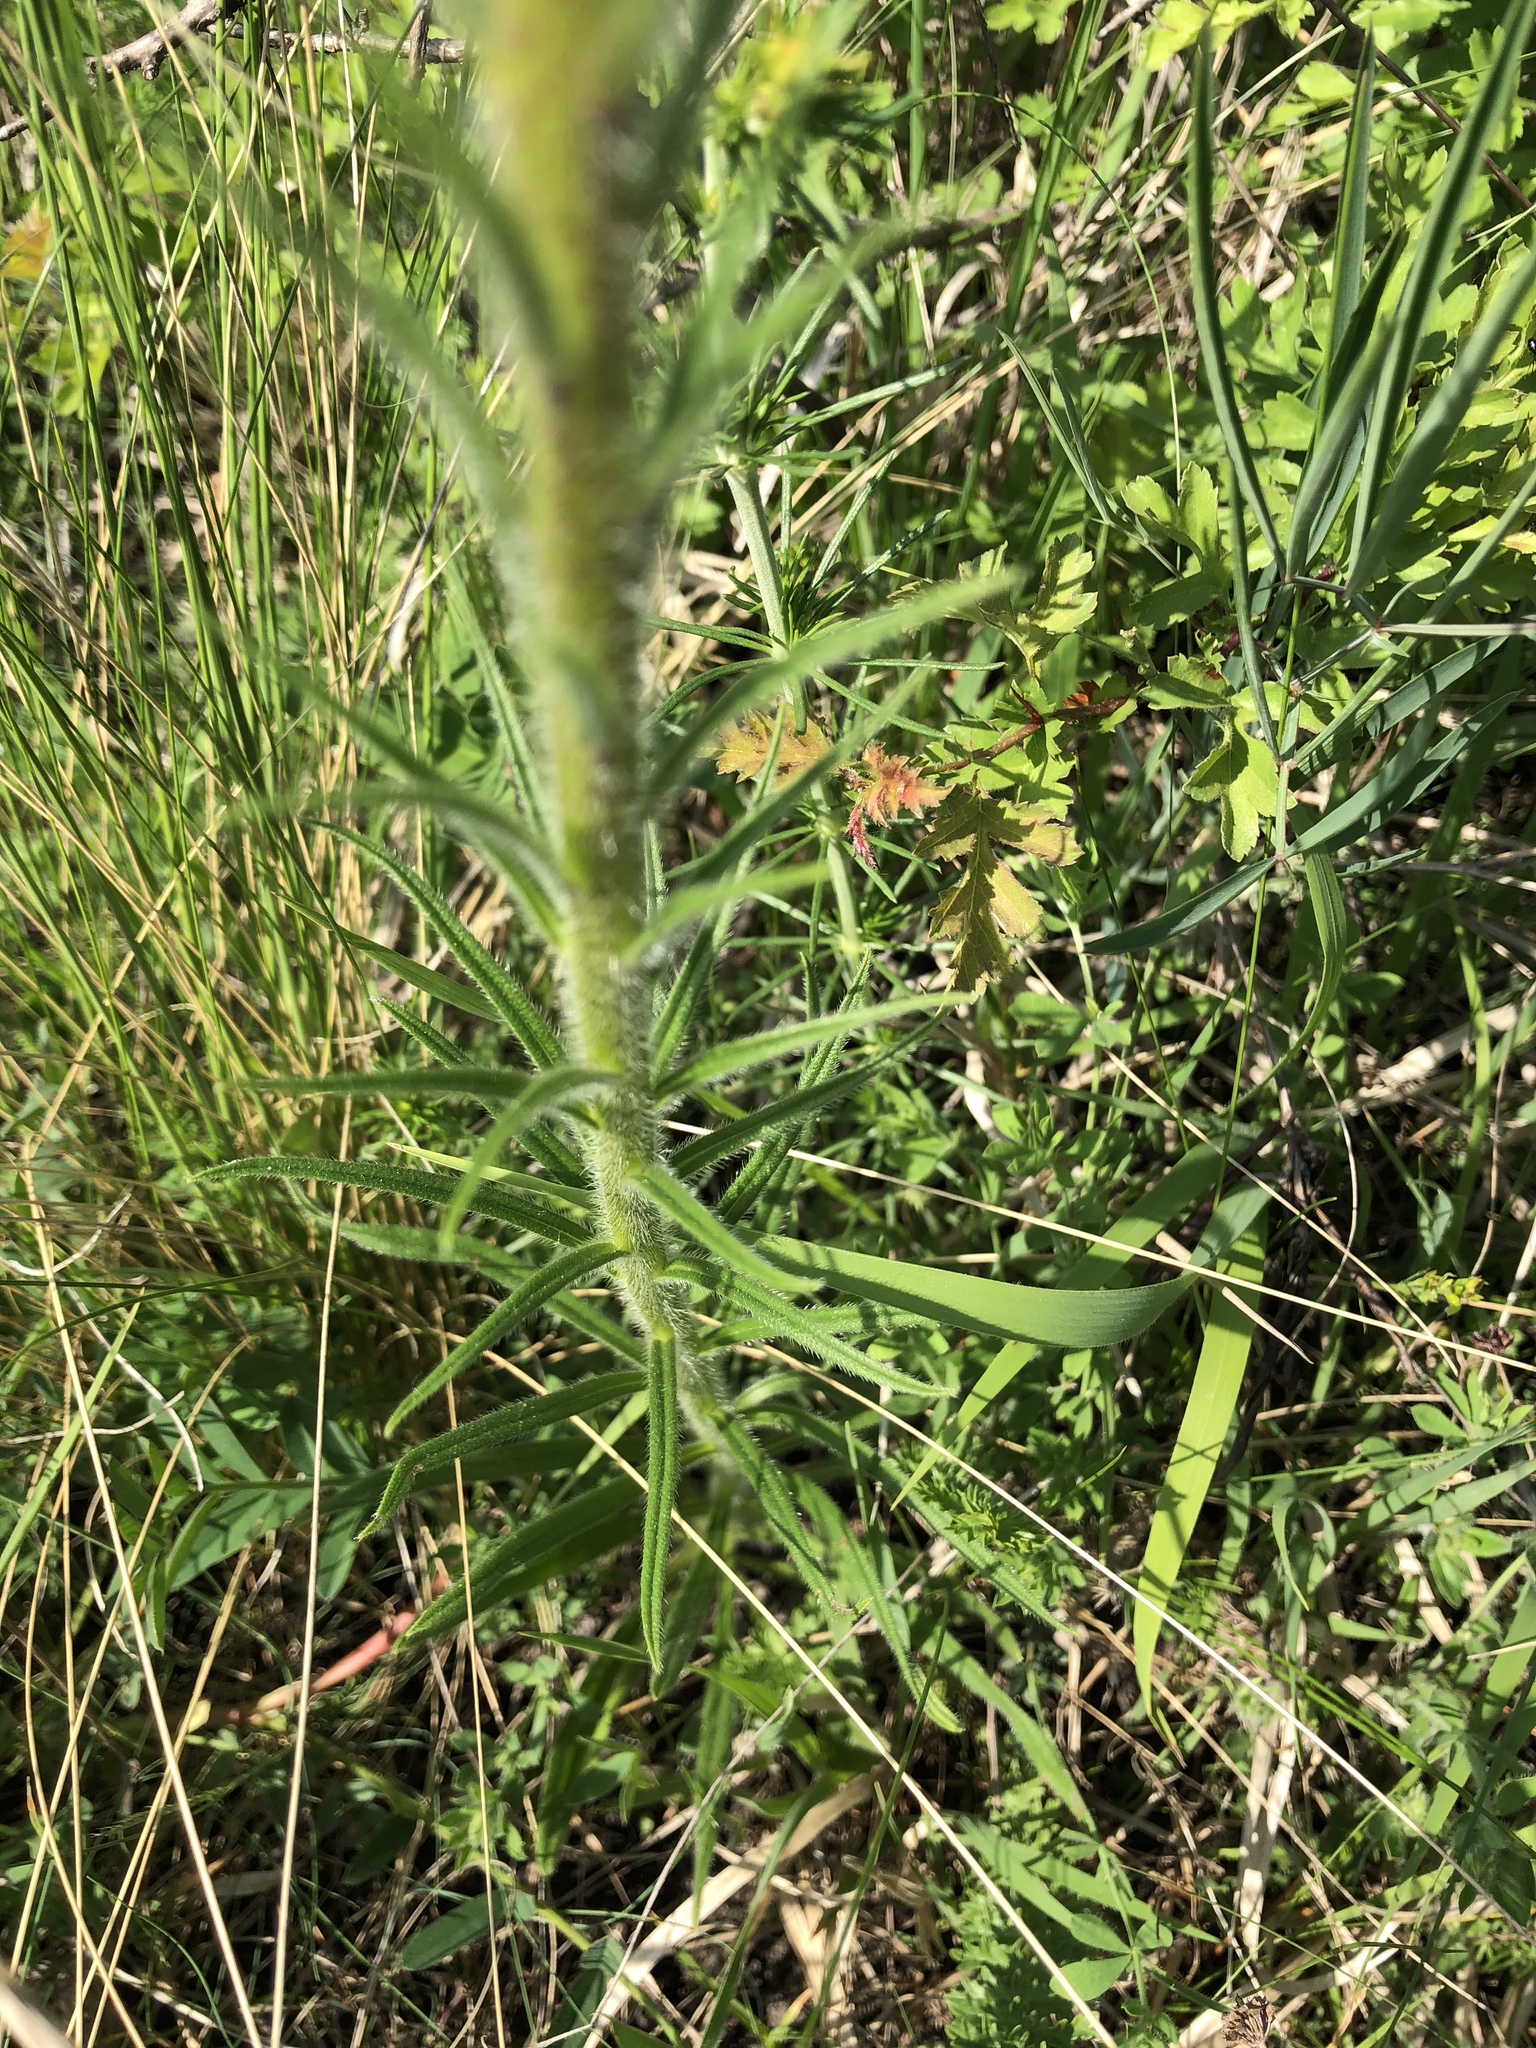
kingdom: Plantae
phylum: Tracheophyta
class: Magnoliopsida
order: Boraginales
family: Boraginaceae
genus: Pontechium
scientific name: Pontechium maculatum
